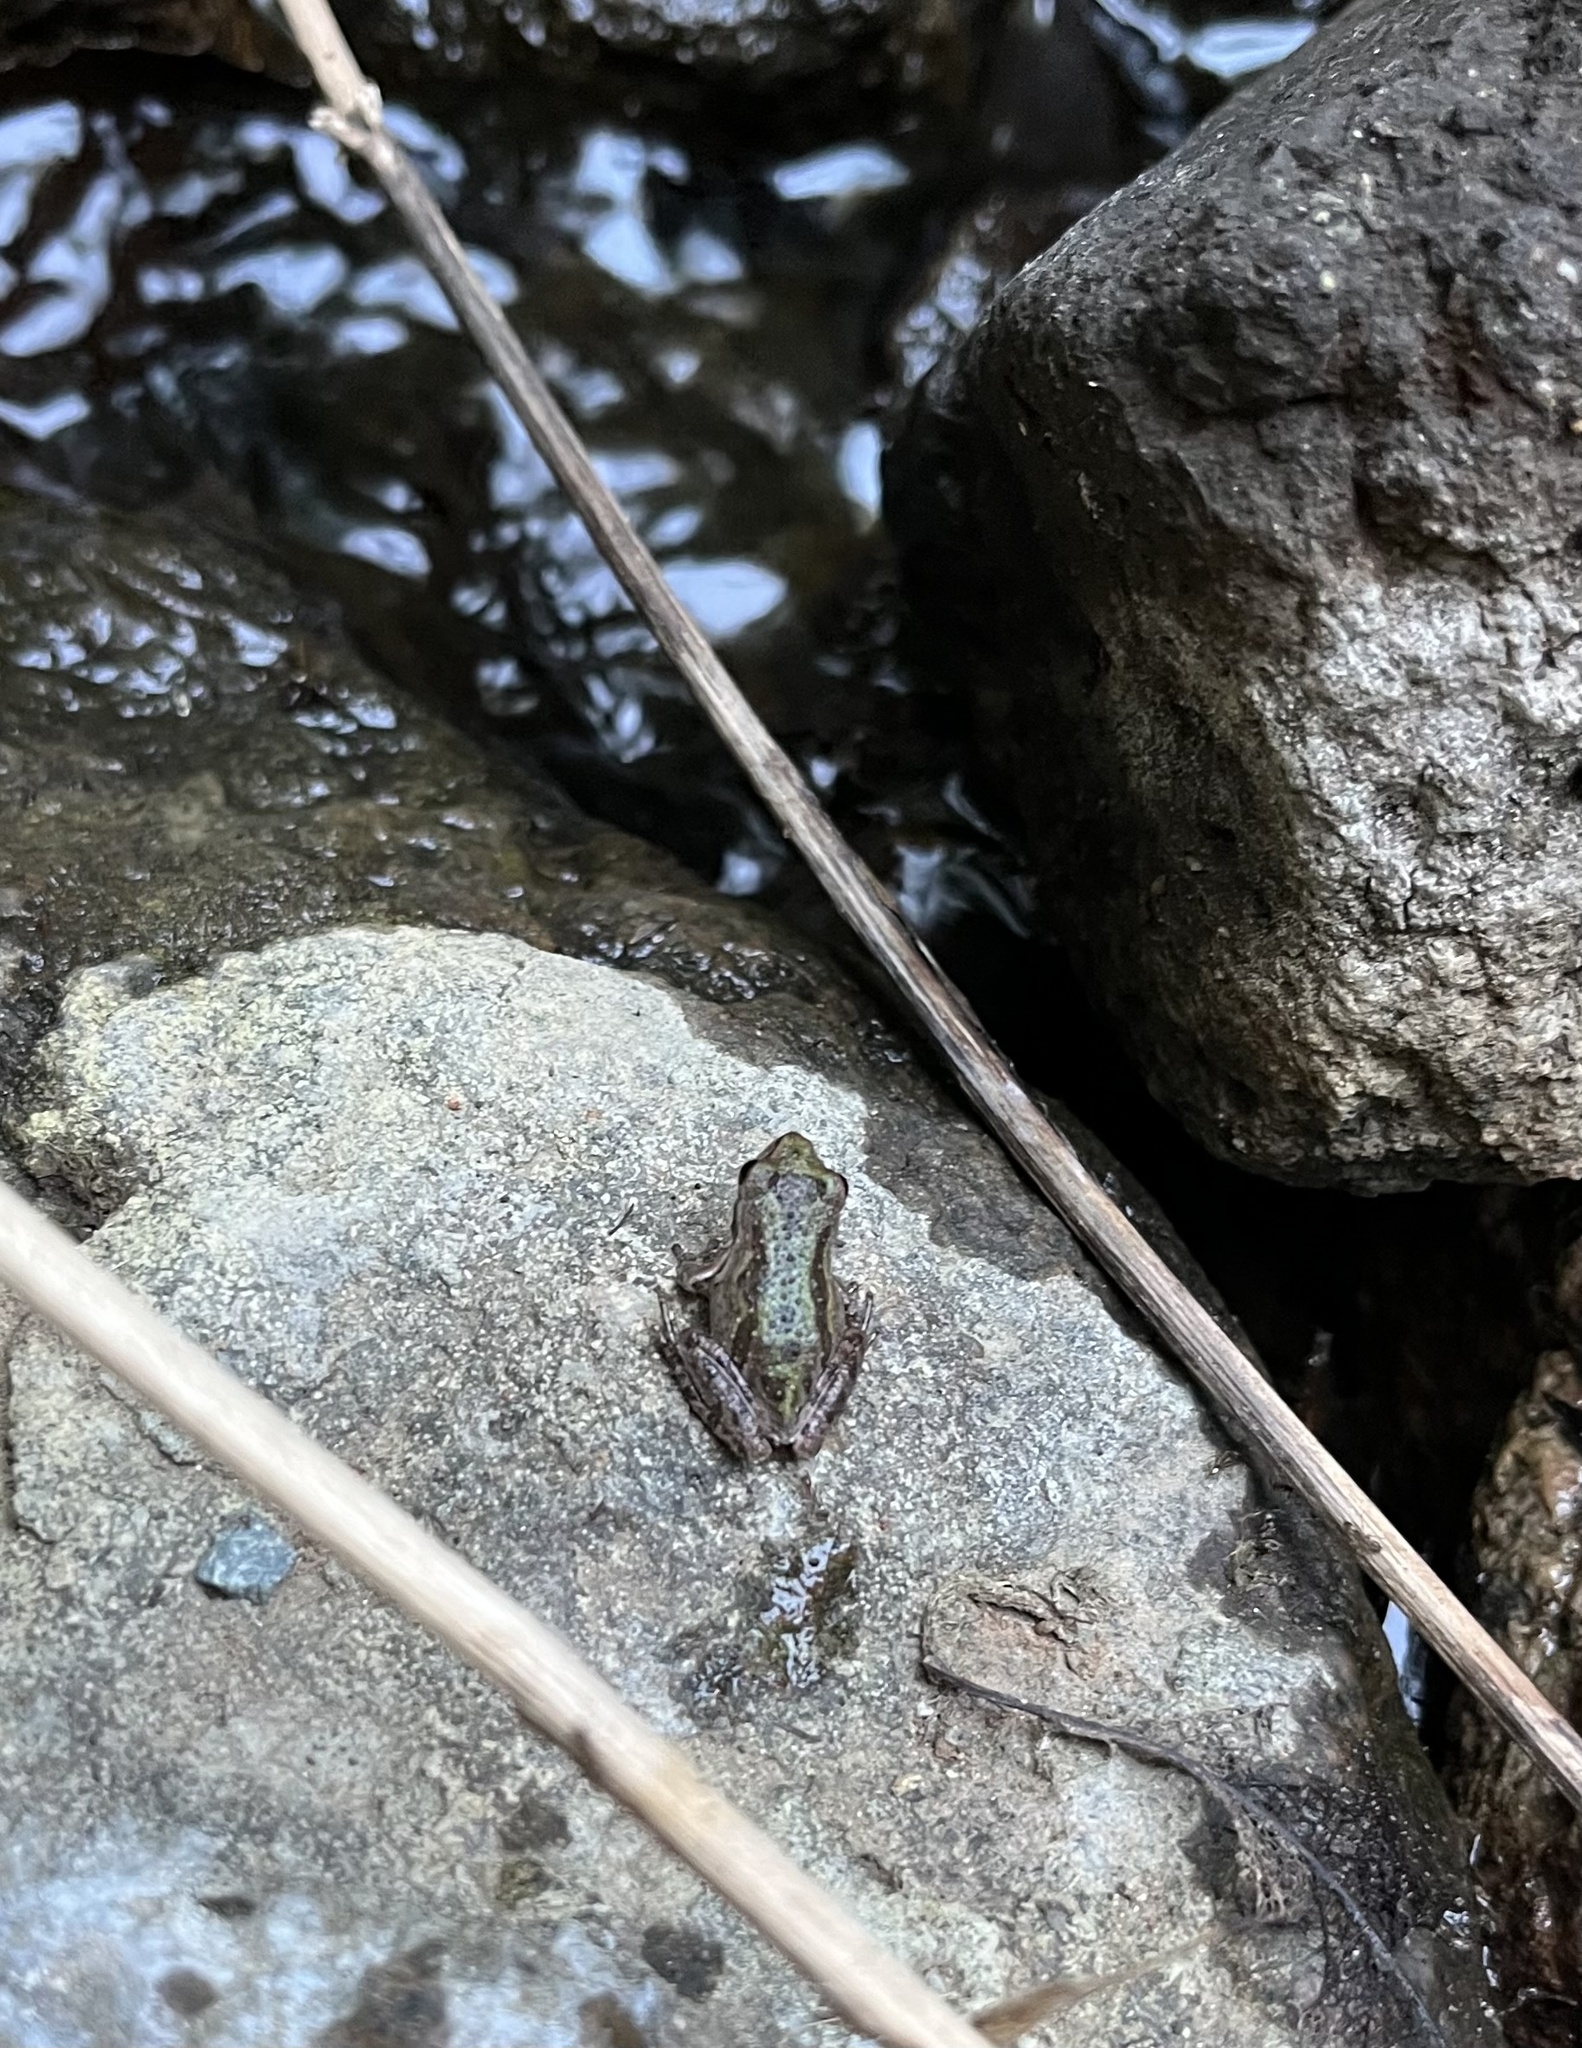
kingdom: Animalia
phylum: Chordata
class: Amphibia
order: Anura
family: Hylidae
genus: Pseudacris
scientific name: Pseudacris regilla
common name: Pacific chorus frog
